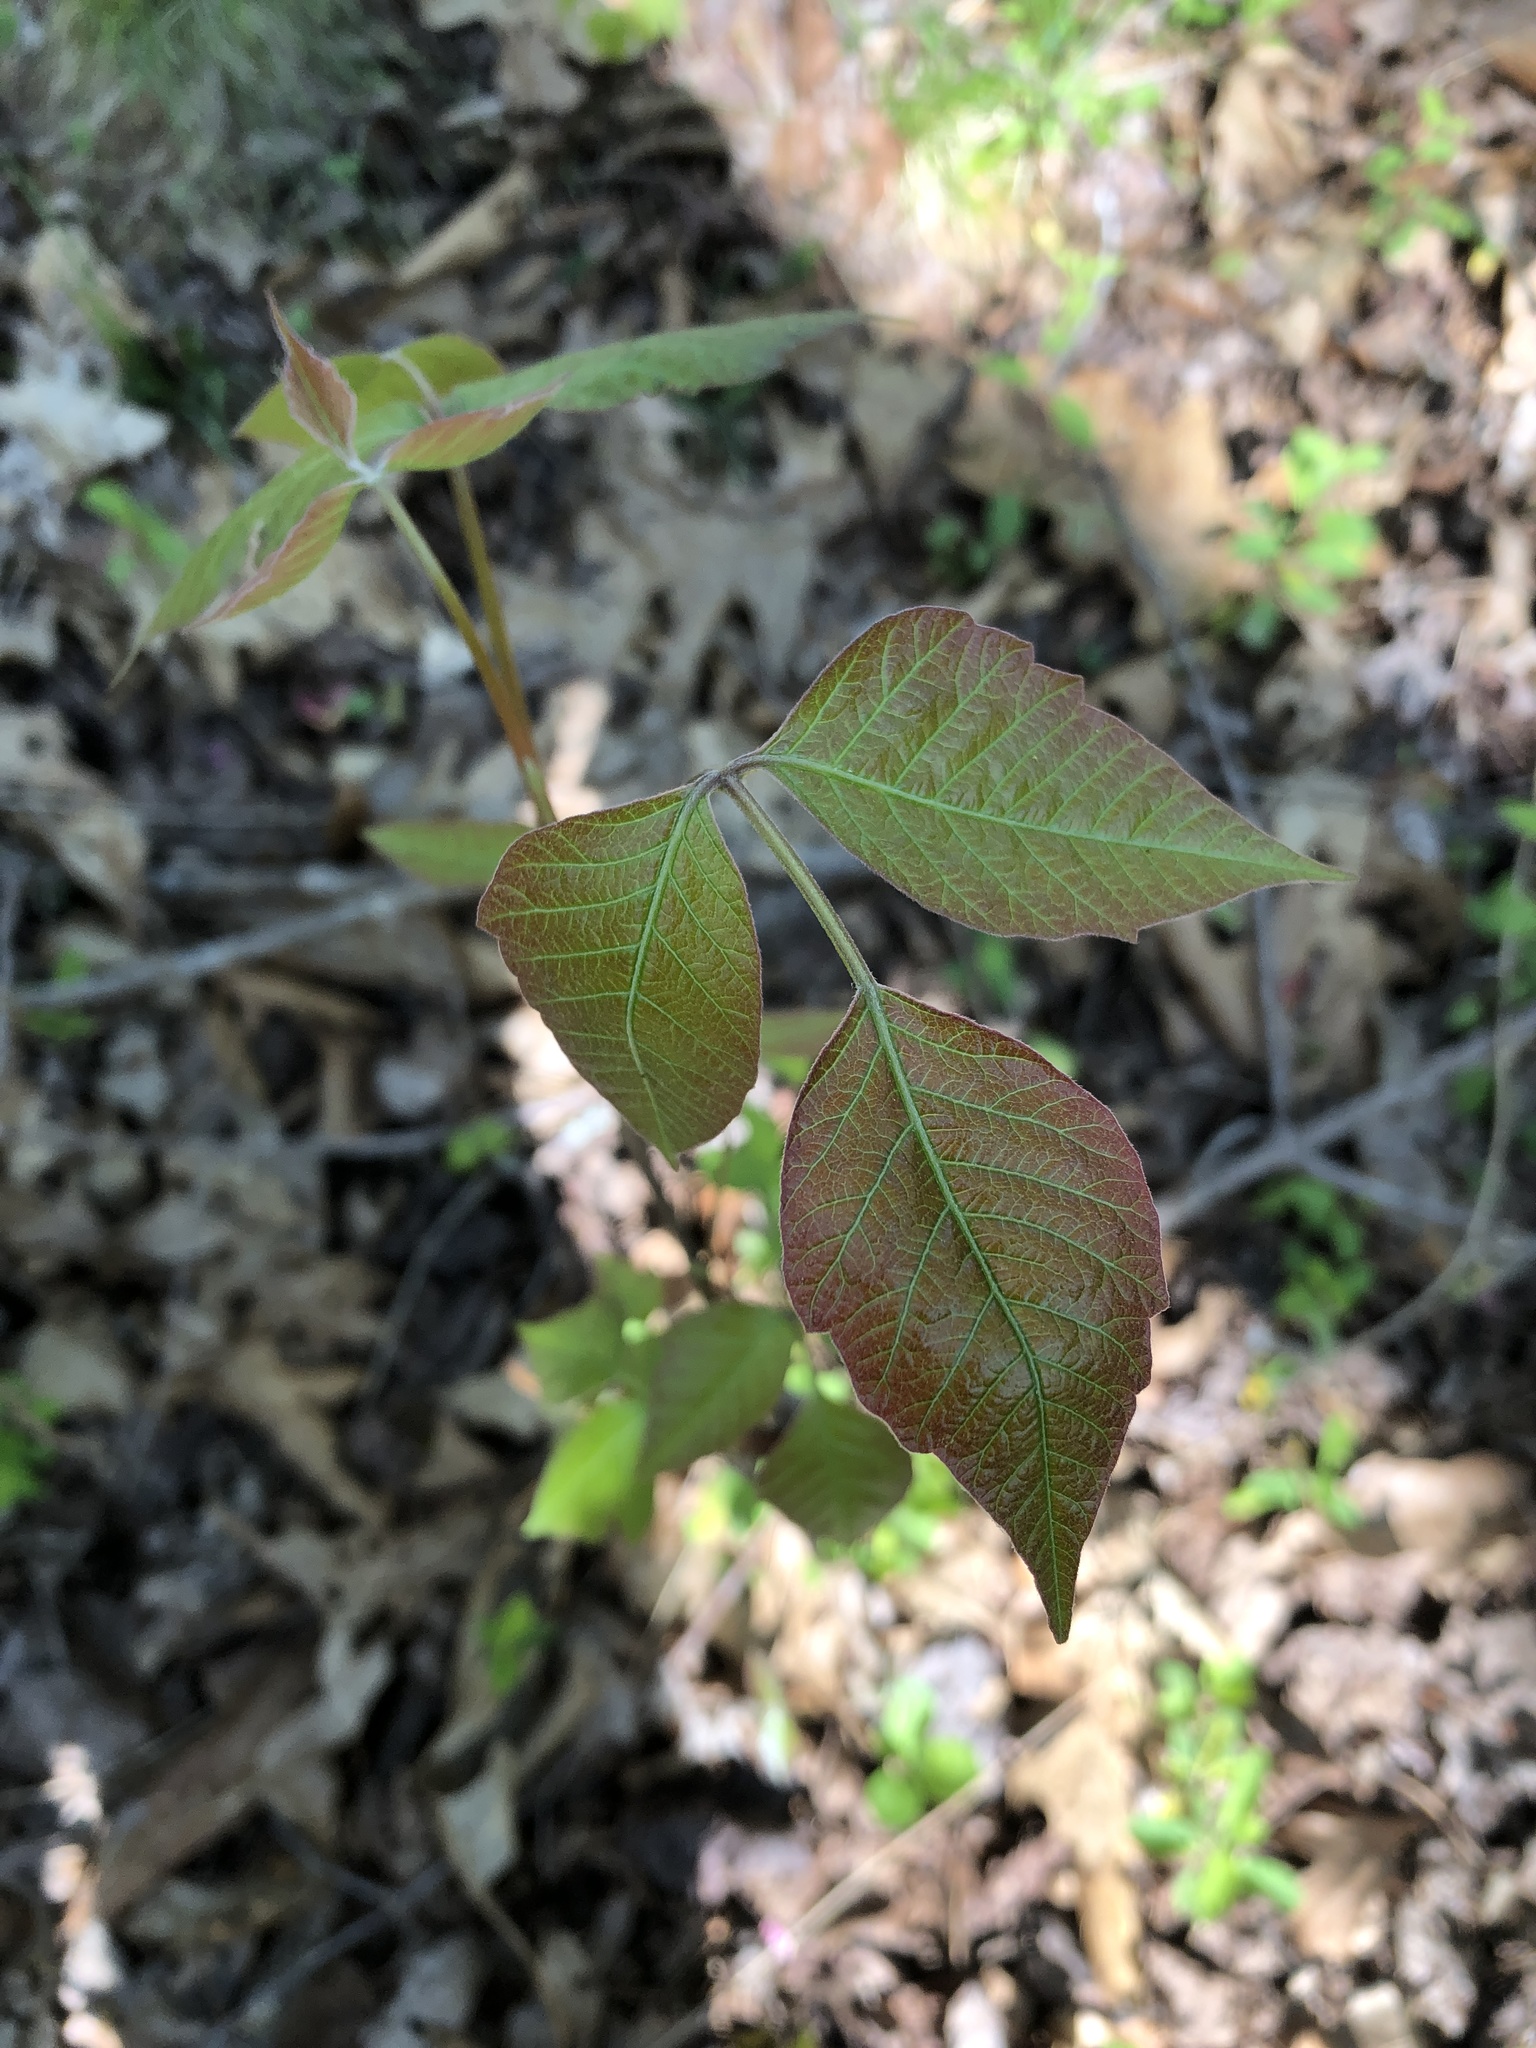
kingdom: Plantae
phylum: Tracheophyta
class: Magnoliopsida
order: Sapindales
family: Anacardiaceae
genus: Toxicodendron
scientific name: Toxicodendron radicans
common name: Poison ivy
